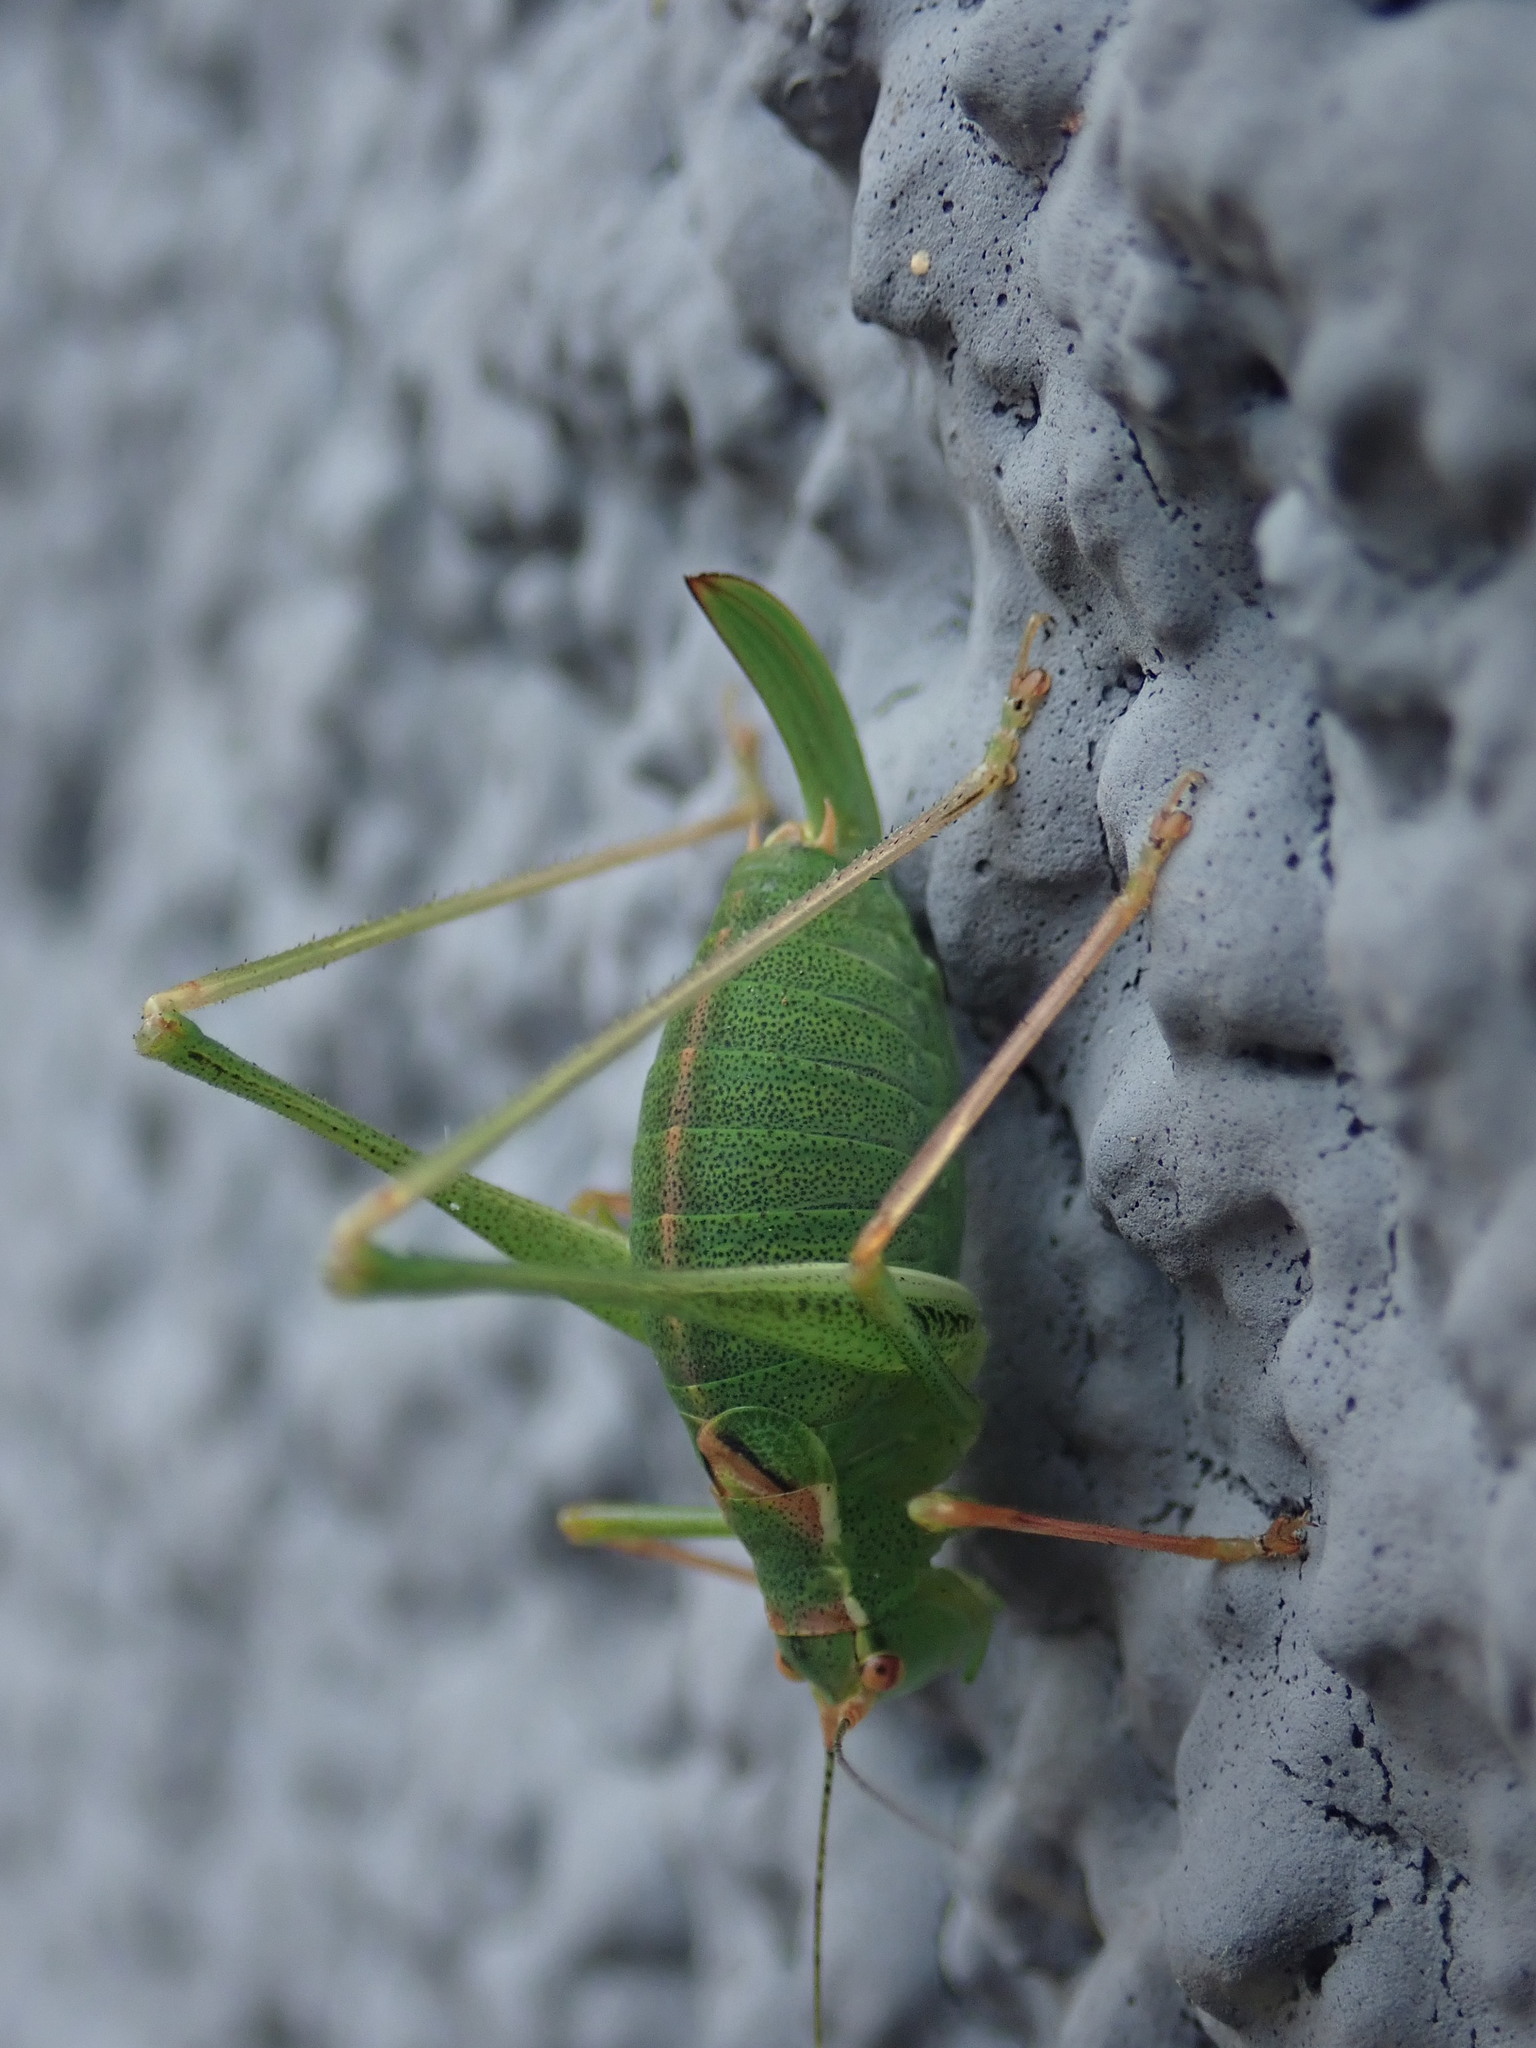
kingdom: Animalia
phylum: Arthropoda
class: Insecta
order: Orthoptera
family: Tettigoniidae
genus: Leptophyes
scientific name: Leptophyes punctatissima
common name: Speckled bush-cricket
